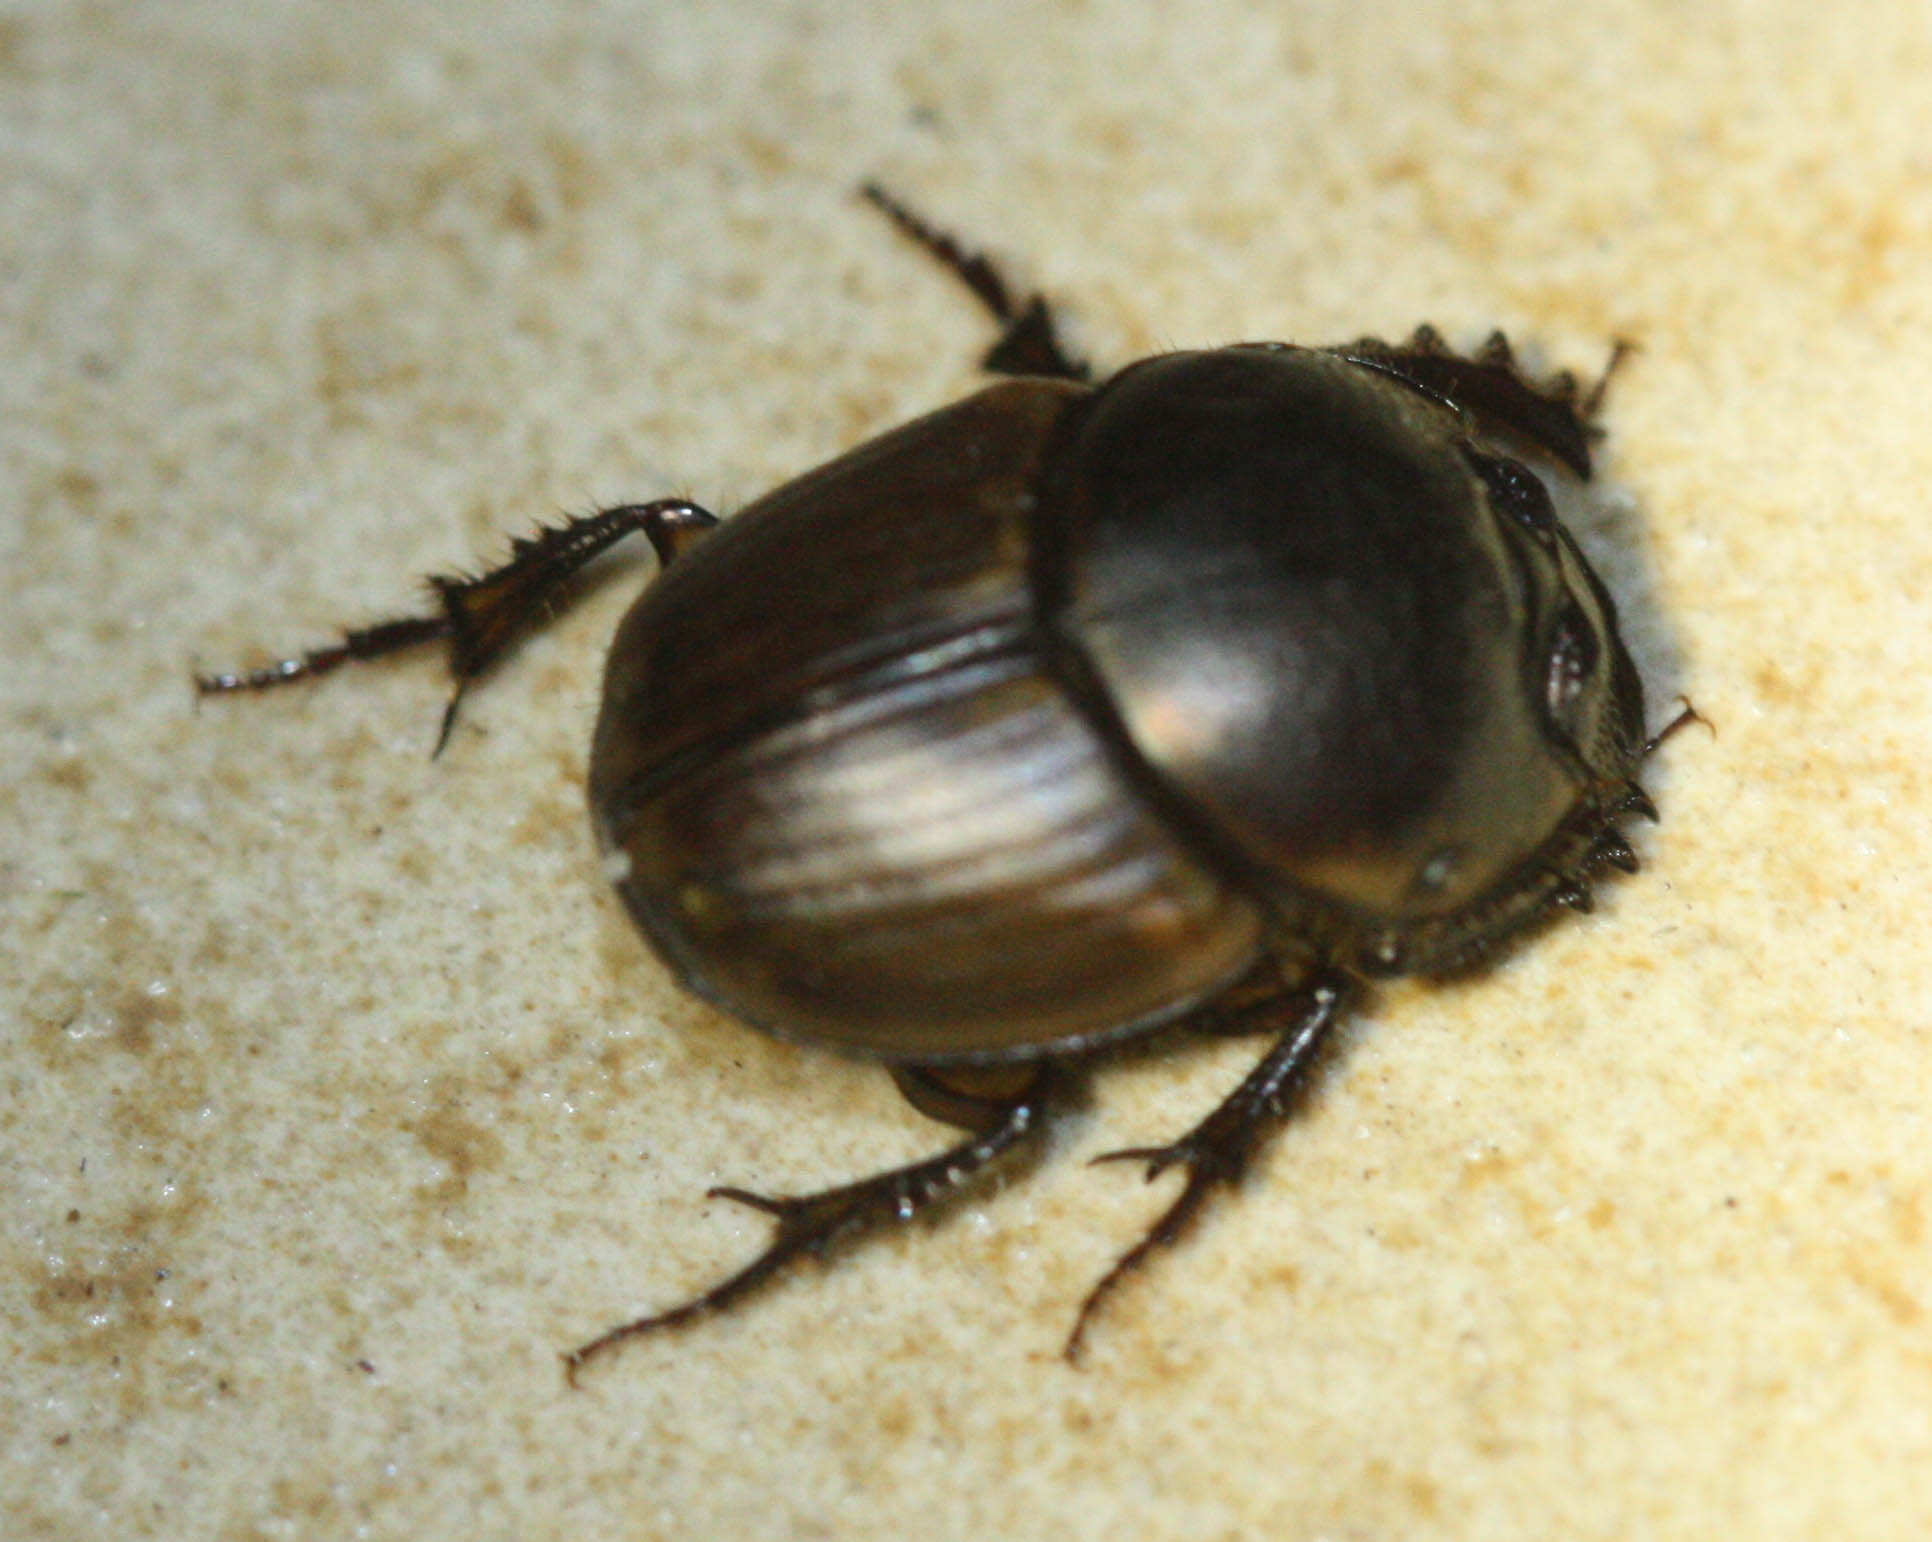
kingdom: Animalia
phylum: Arthropoda
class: Insecta
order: Coleoptera
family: Scarabaeidae
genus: Digitonthophagus
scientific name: Digitonthophagus gazella
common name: Brown dung beetle
